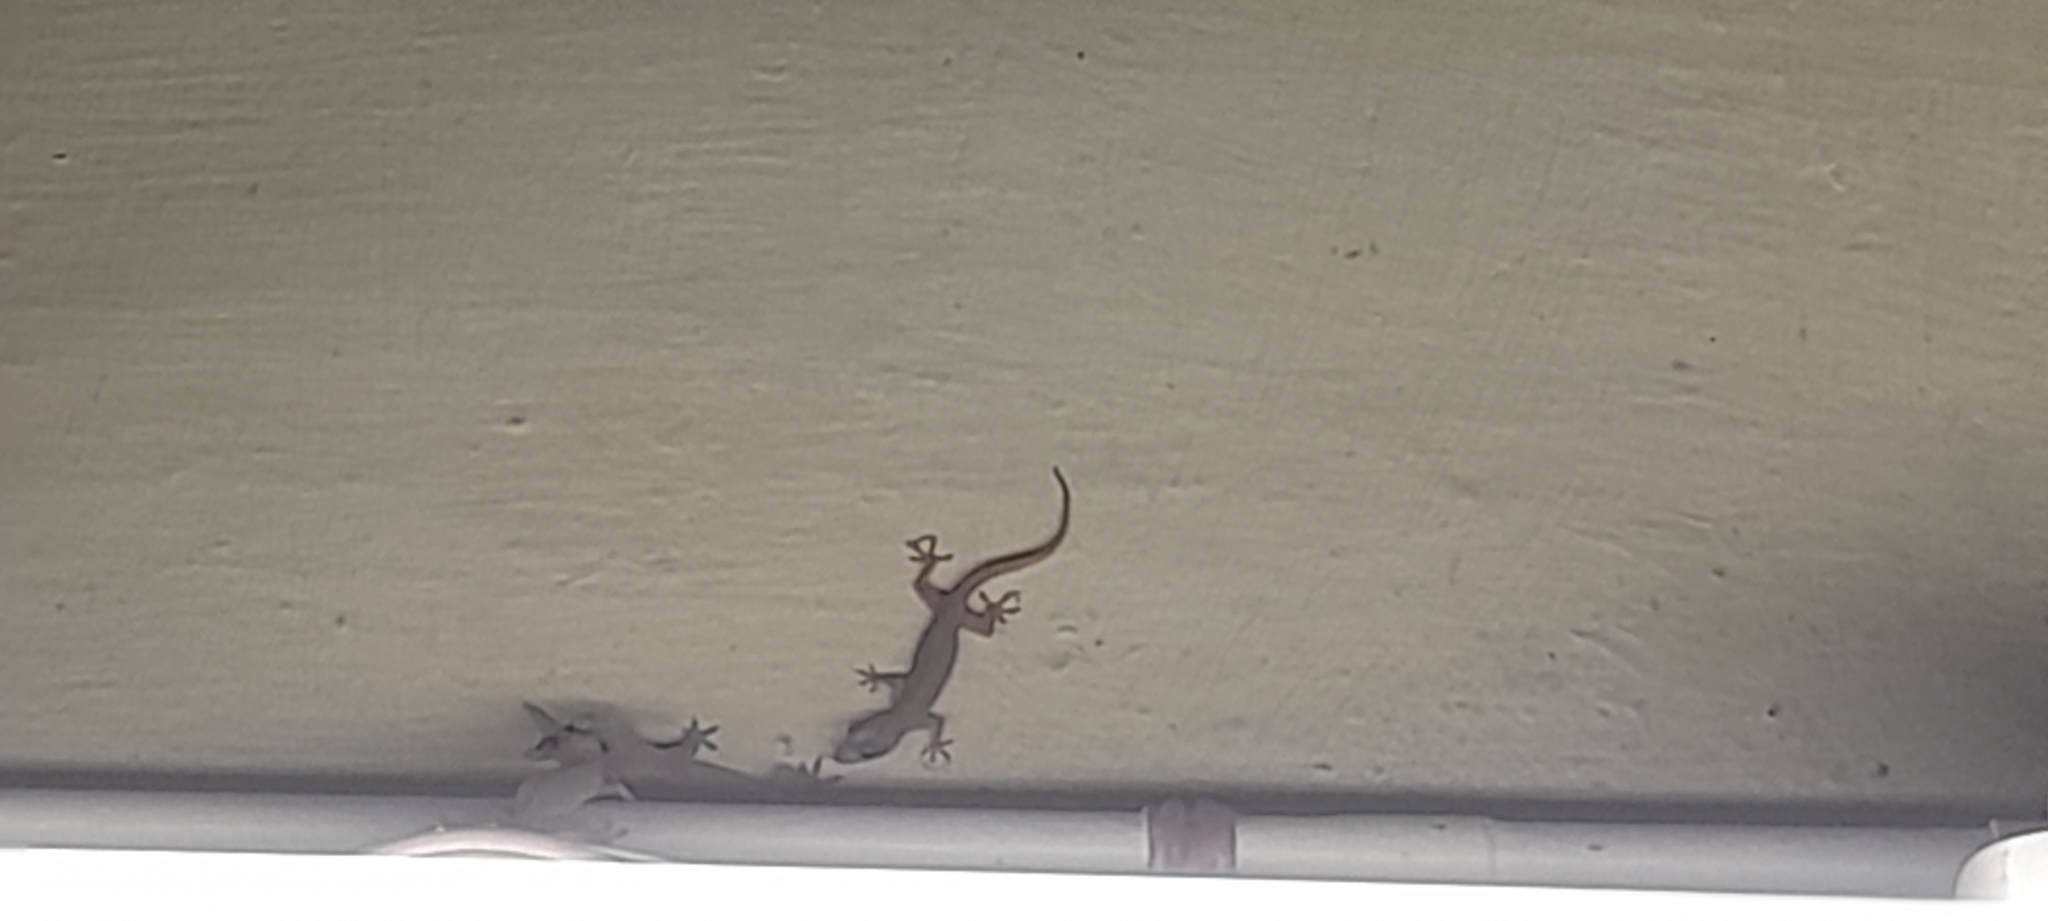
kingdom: Animalia
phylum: Chordata
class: Squamata
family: Gekkonidae
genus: Hemidactylus
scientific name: Hemidactylus frenatus
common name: Common house gecko
